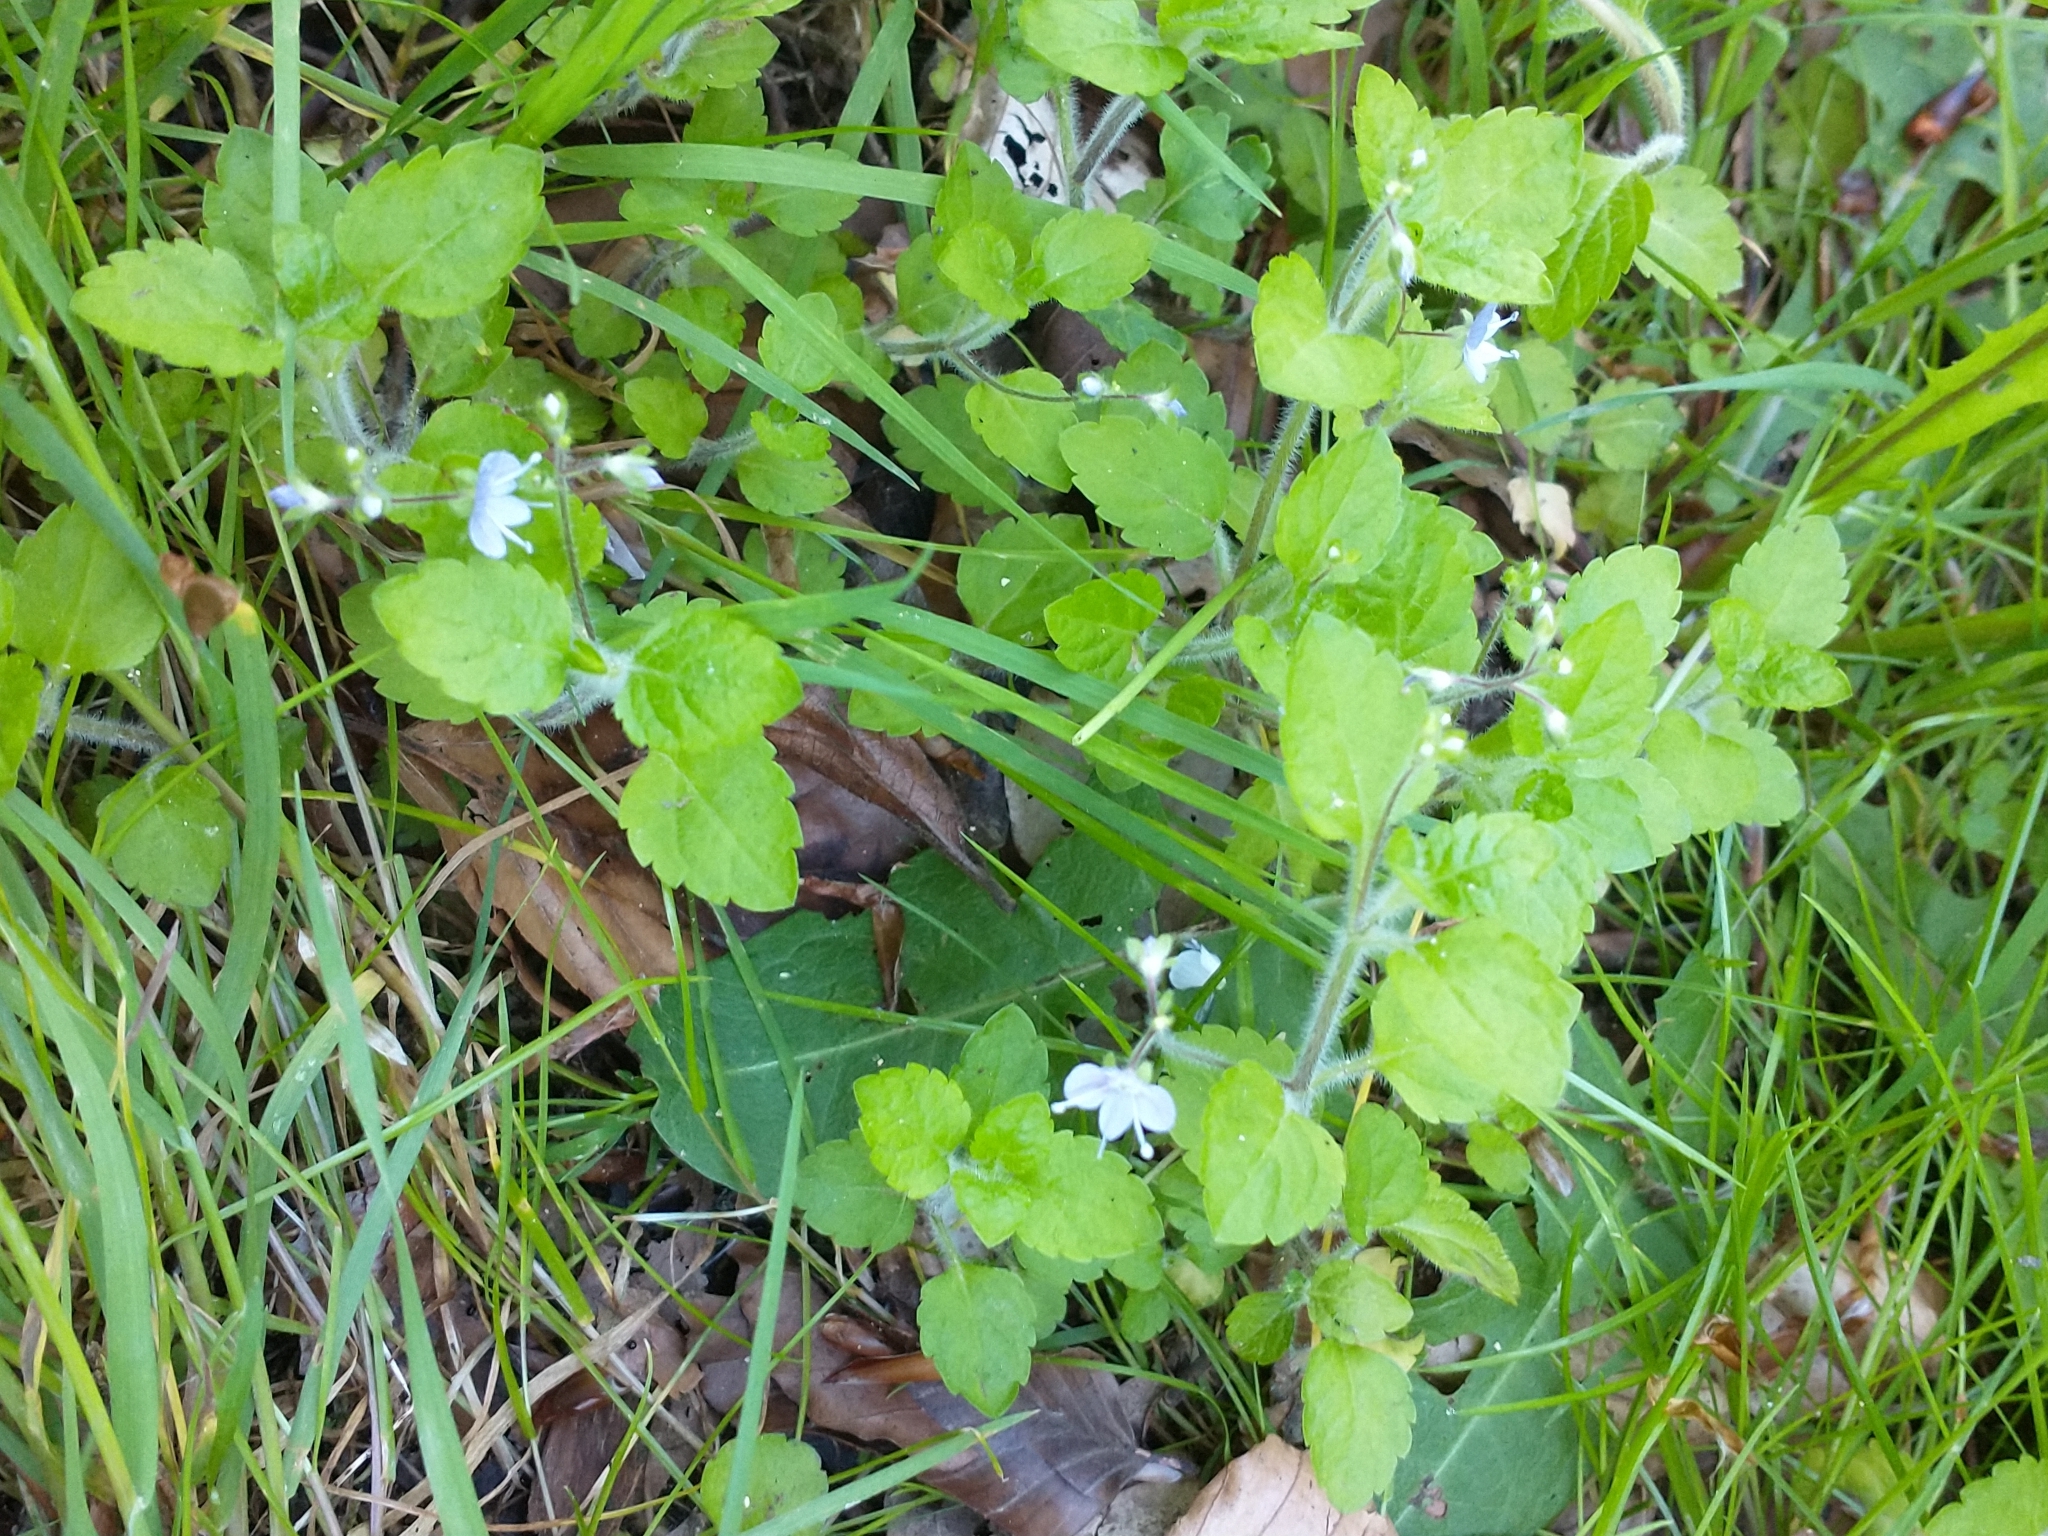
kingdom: Plantae
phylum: Tracheophyta
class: Magnoliopsida
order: Lamiales
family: Plantaginaceae
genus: Veronica
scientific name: Veronica montana
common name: Wood speedwell
